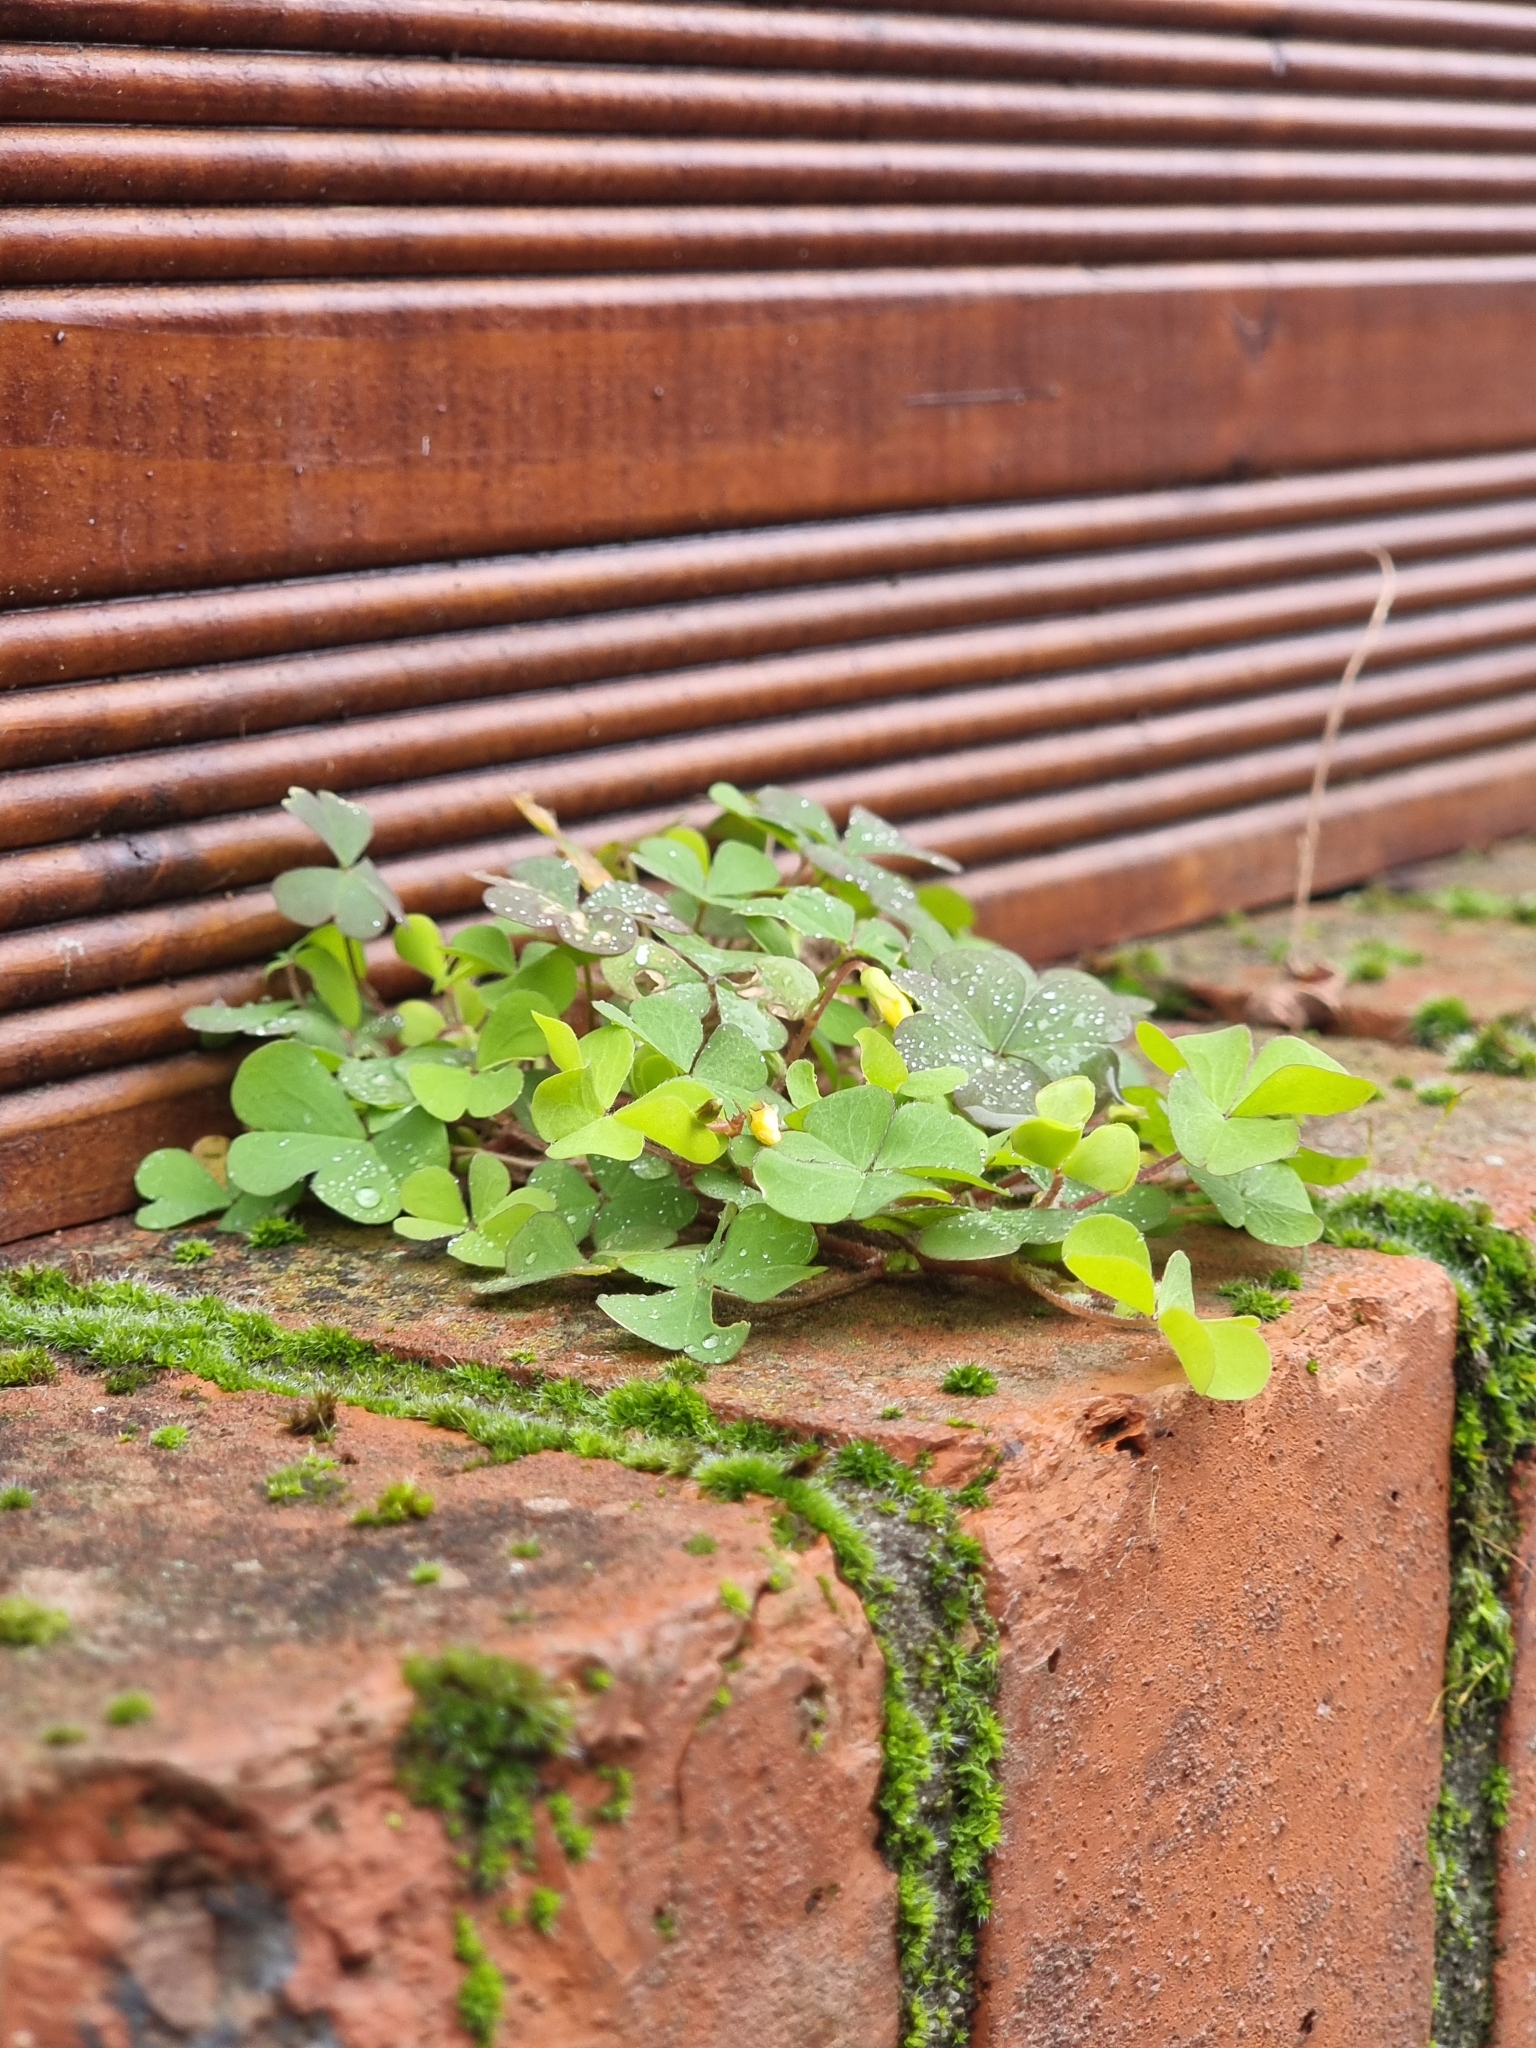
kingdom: Plantae
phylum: Tracheophyta
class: Magnoliopsida
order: Oxalidales
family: Oxalidaceae
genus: Oxalis
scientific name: Oxalis corniculata
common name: Procumbent yellow-sorrel
